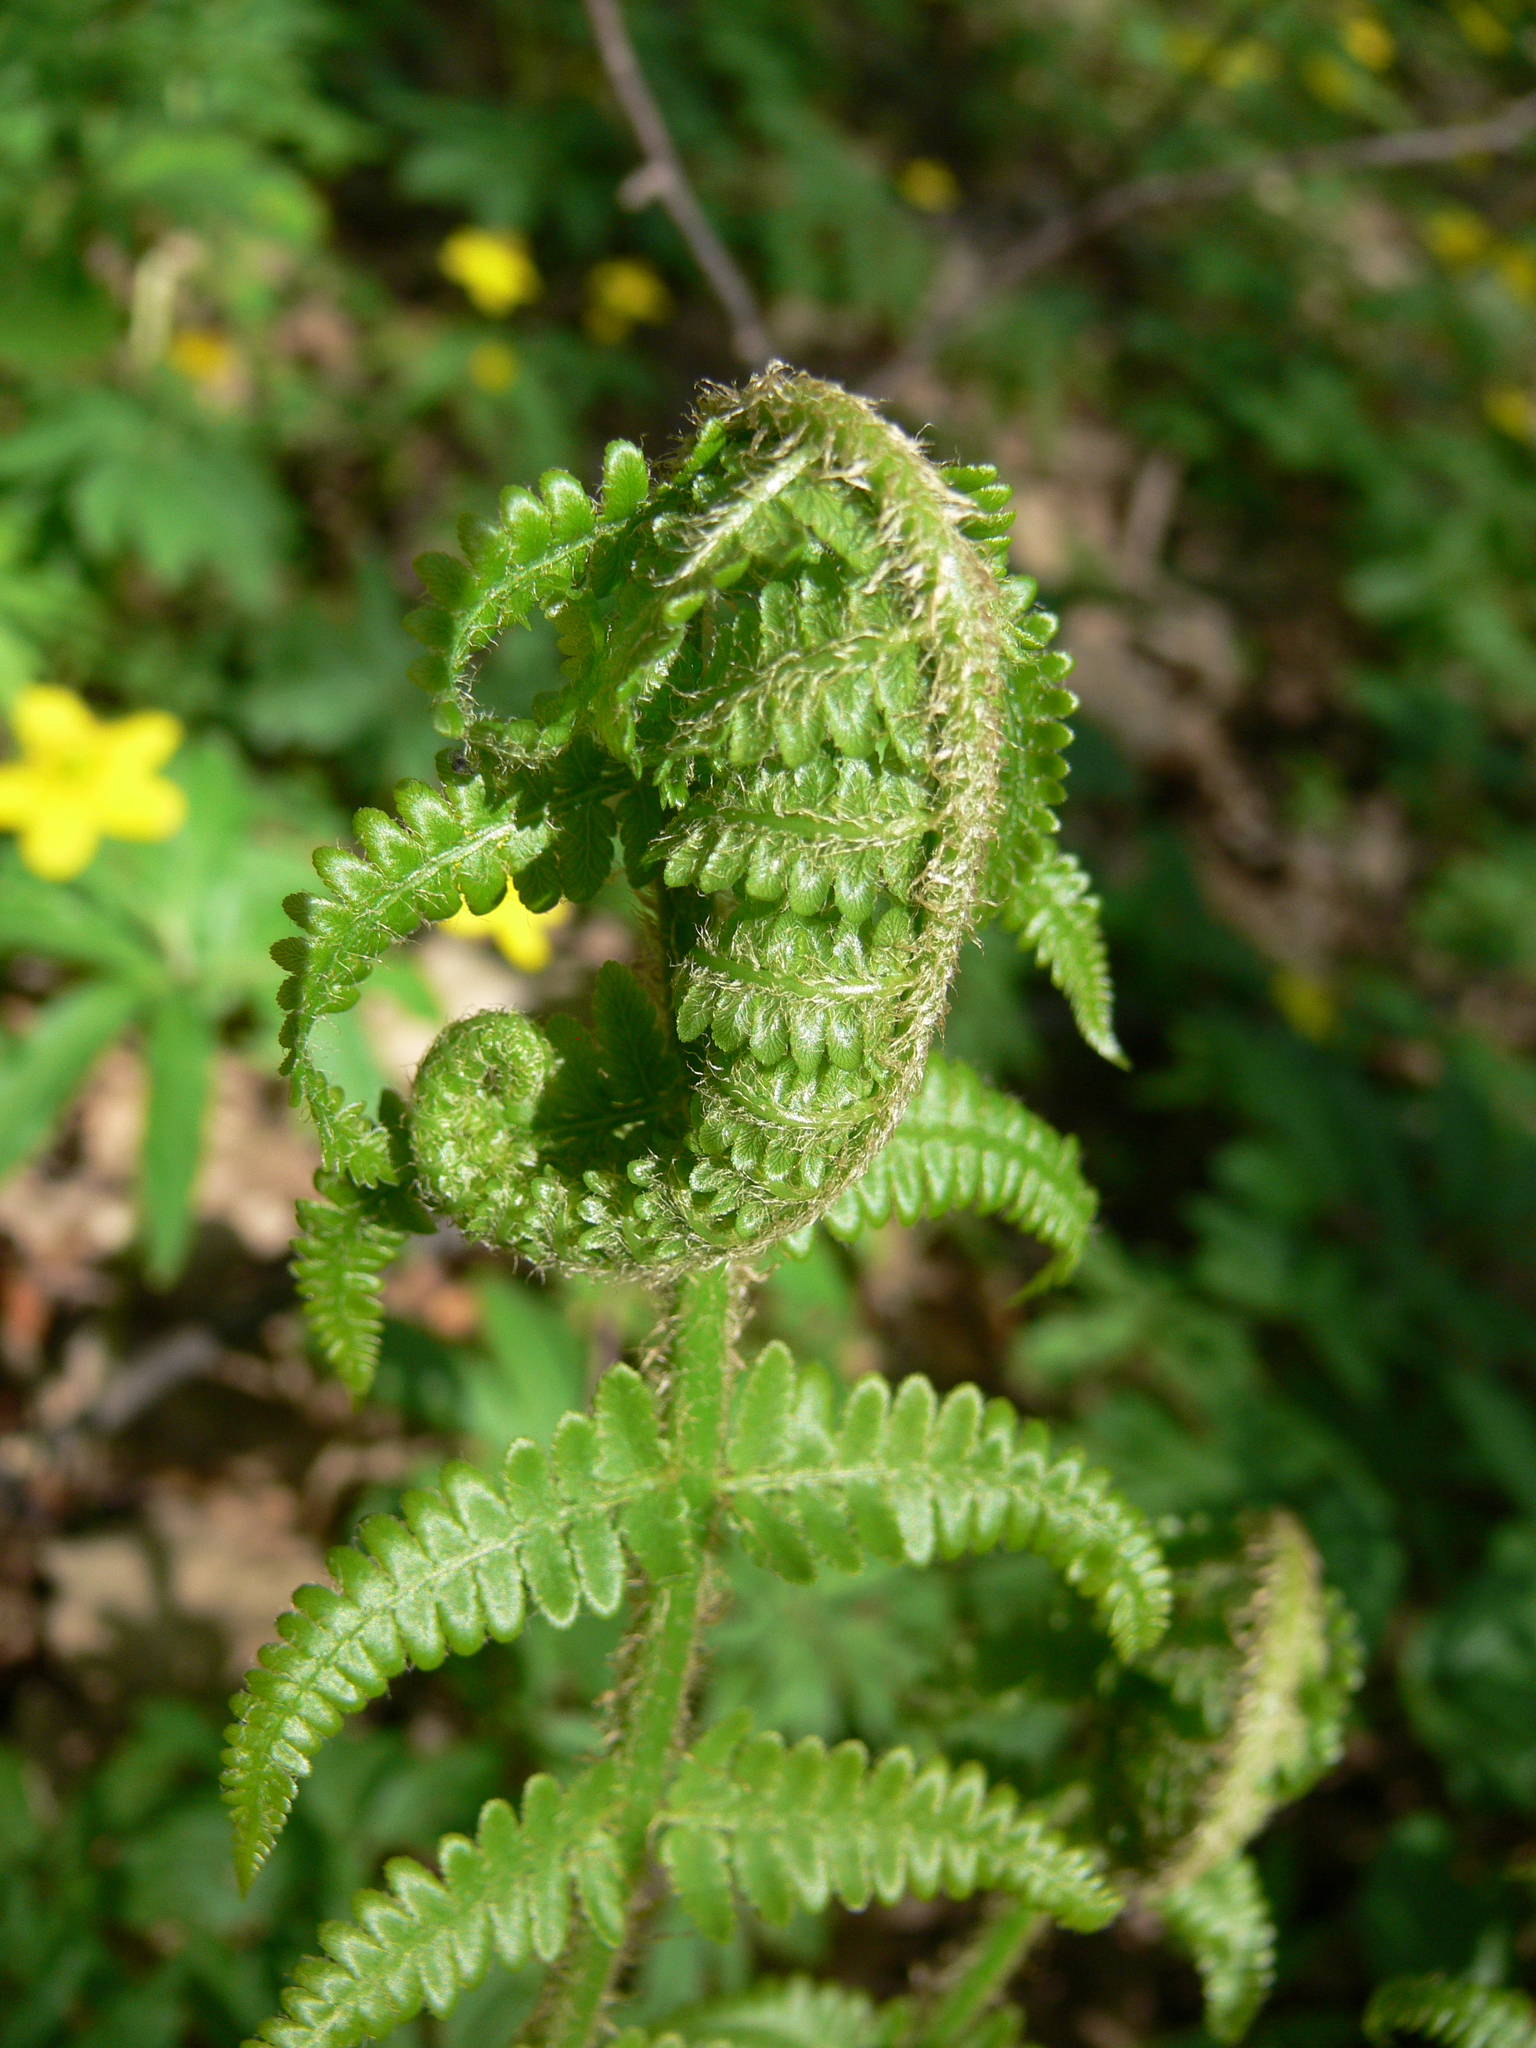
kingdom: Plantae
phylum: Tracheophyta
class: Polypodiopsida
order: Polypodiales
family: Dryopteridaceae
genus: Dryopteris
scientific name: Dryopteris filix-mas
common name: Male fern
